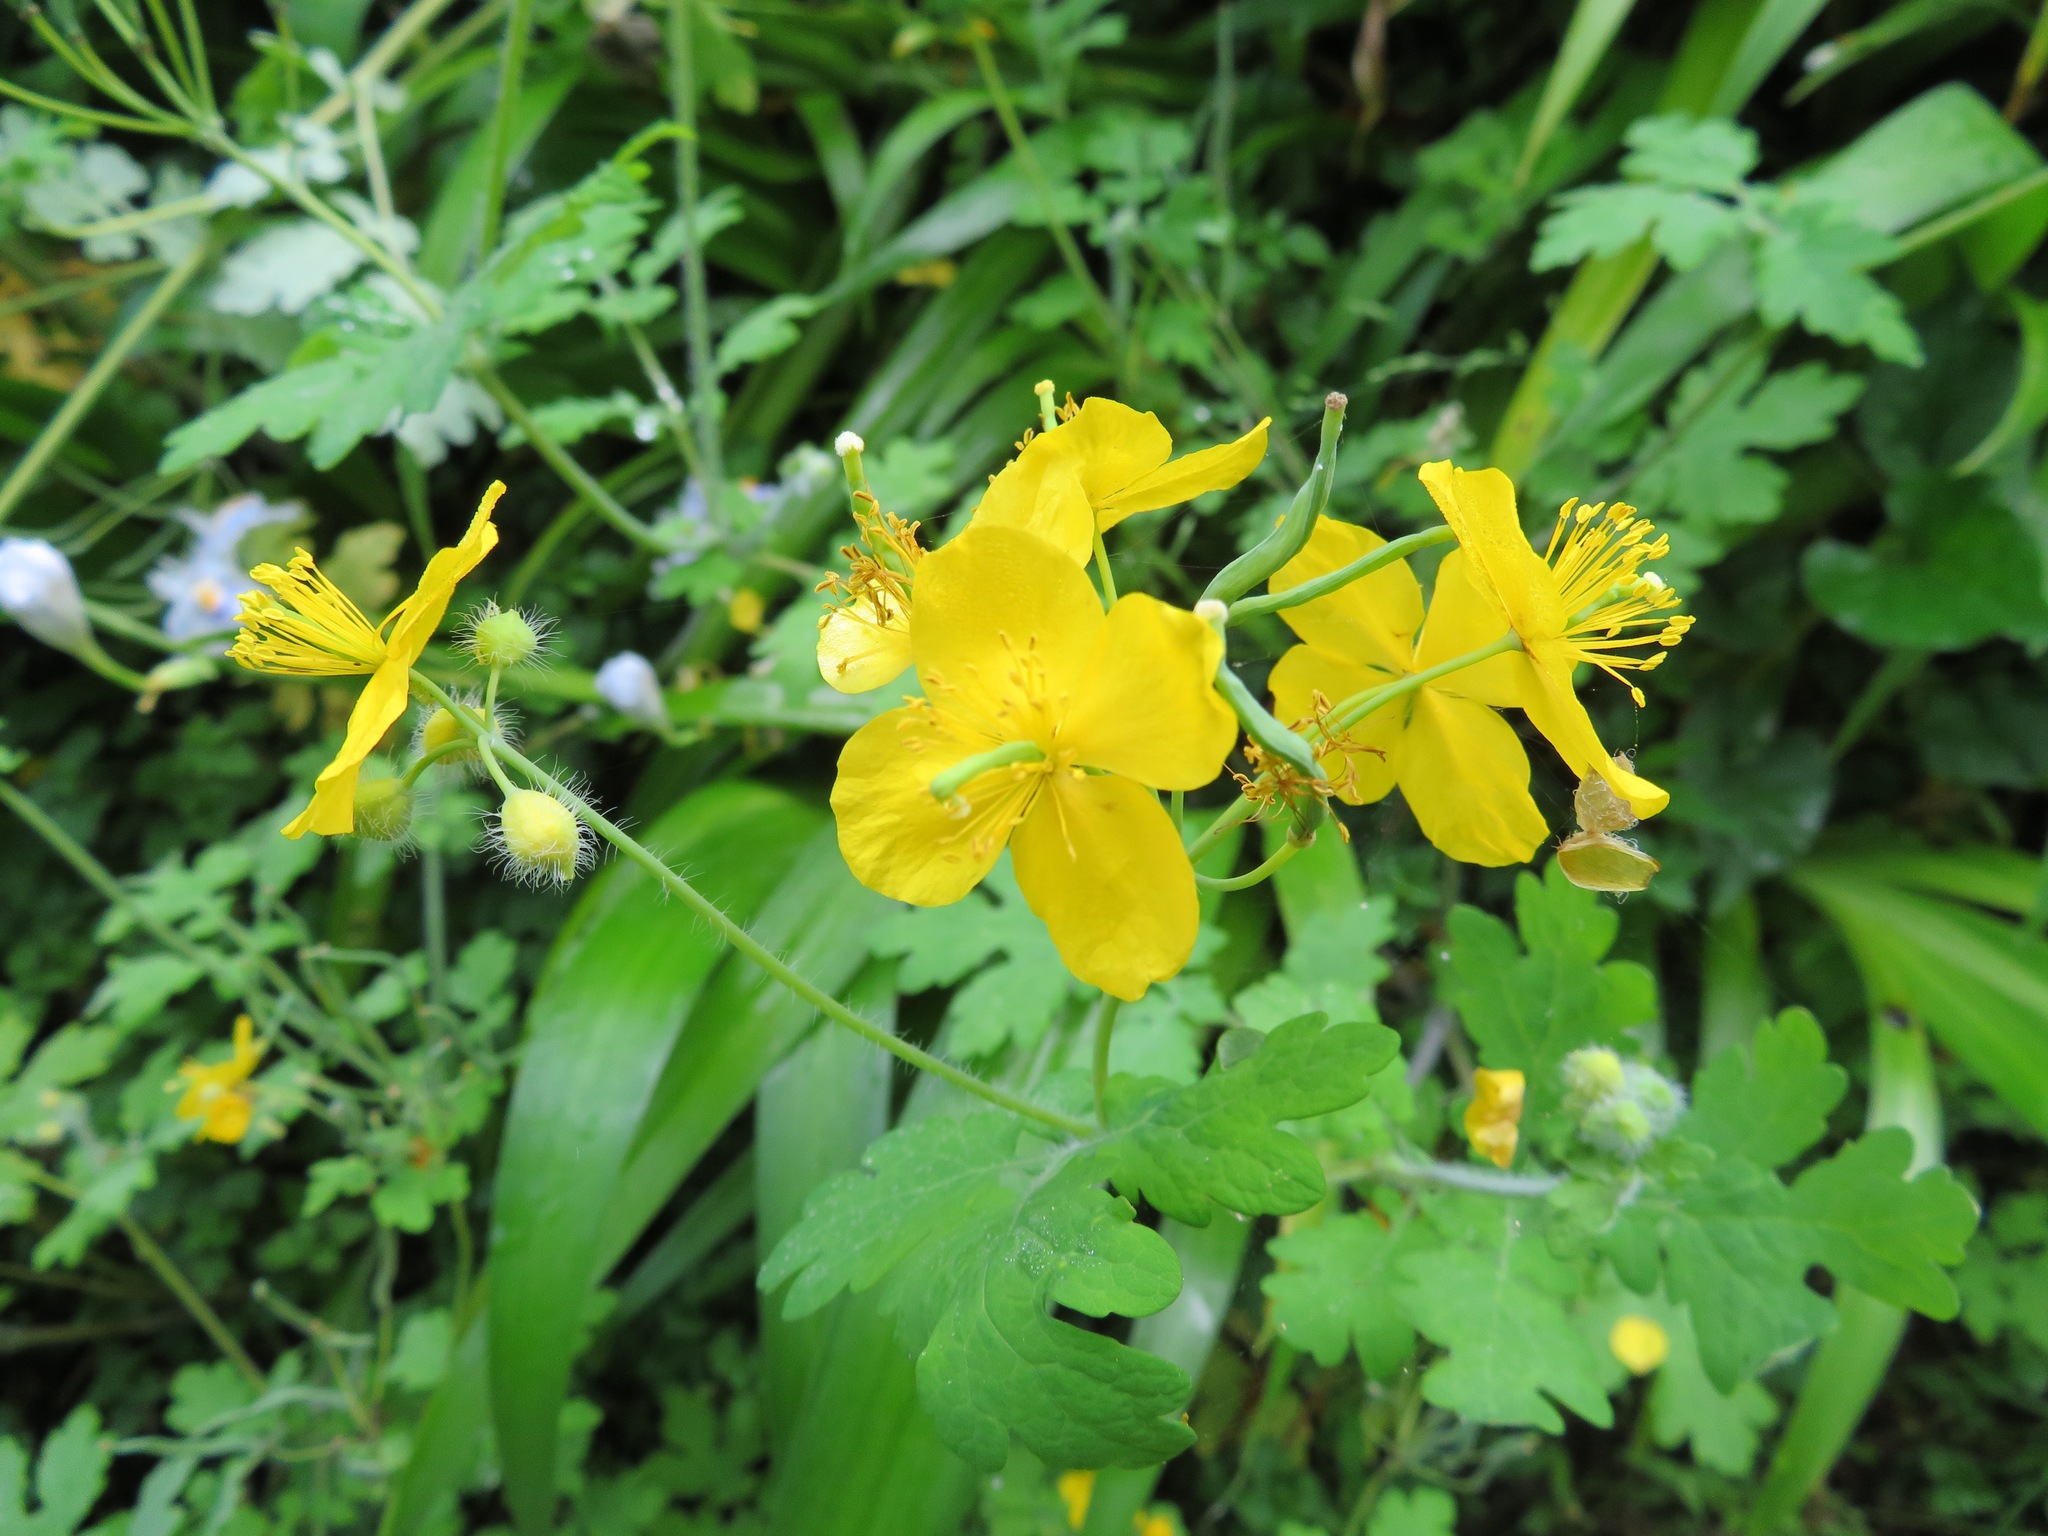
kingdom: Plantae
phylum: Tracheophyta
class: Magnoliopsida
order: Ranunculales
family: Papaveraceae
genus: Chelidonium
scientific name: Chelidonium majus
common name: Greater celandine
